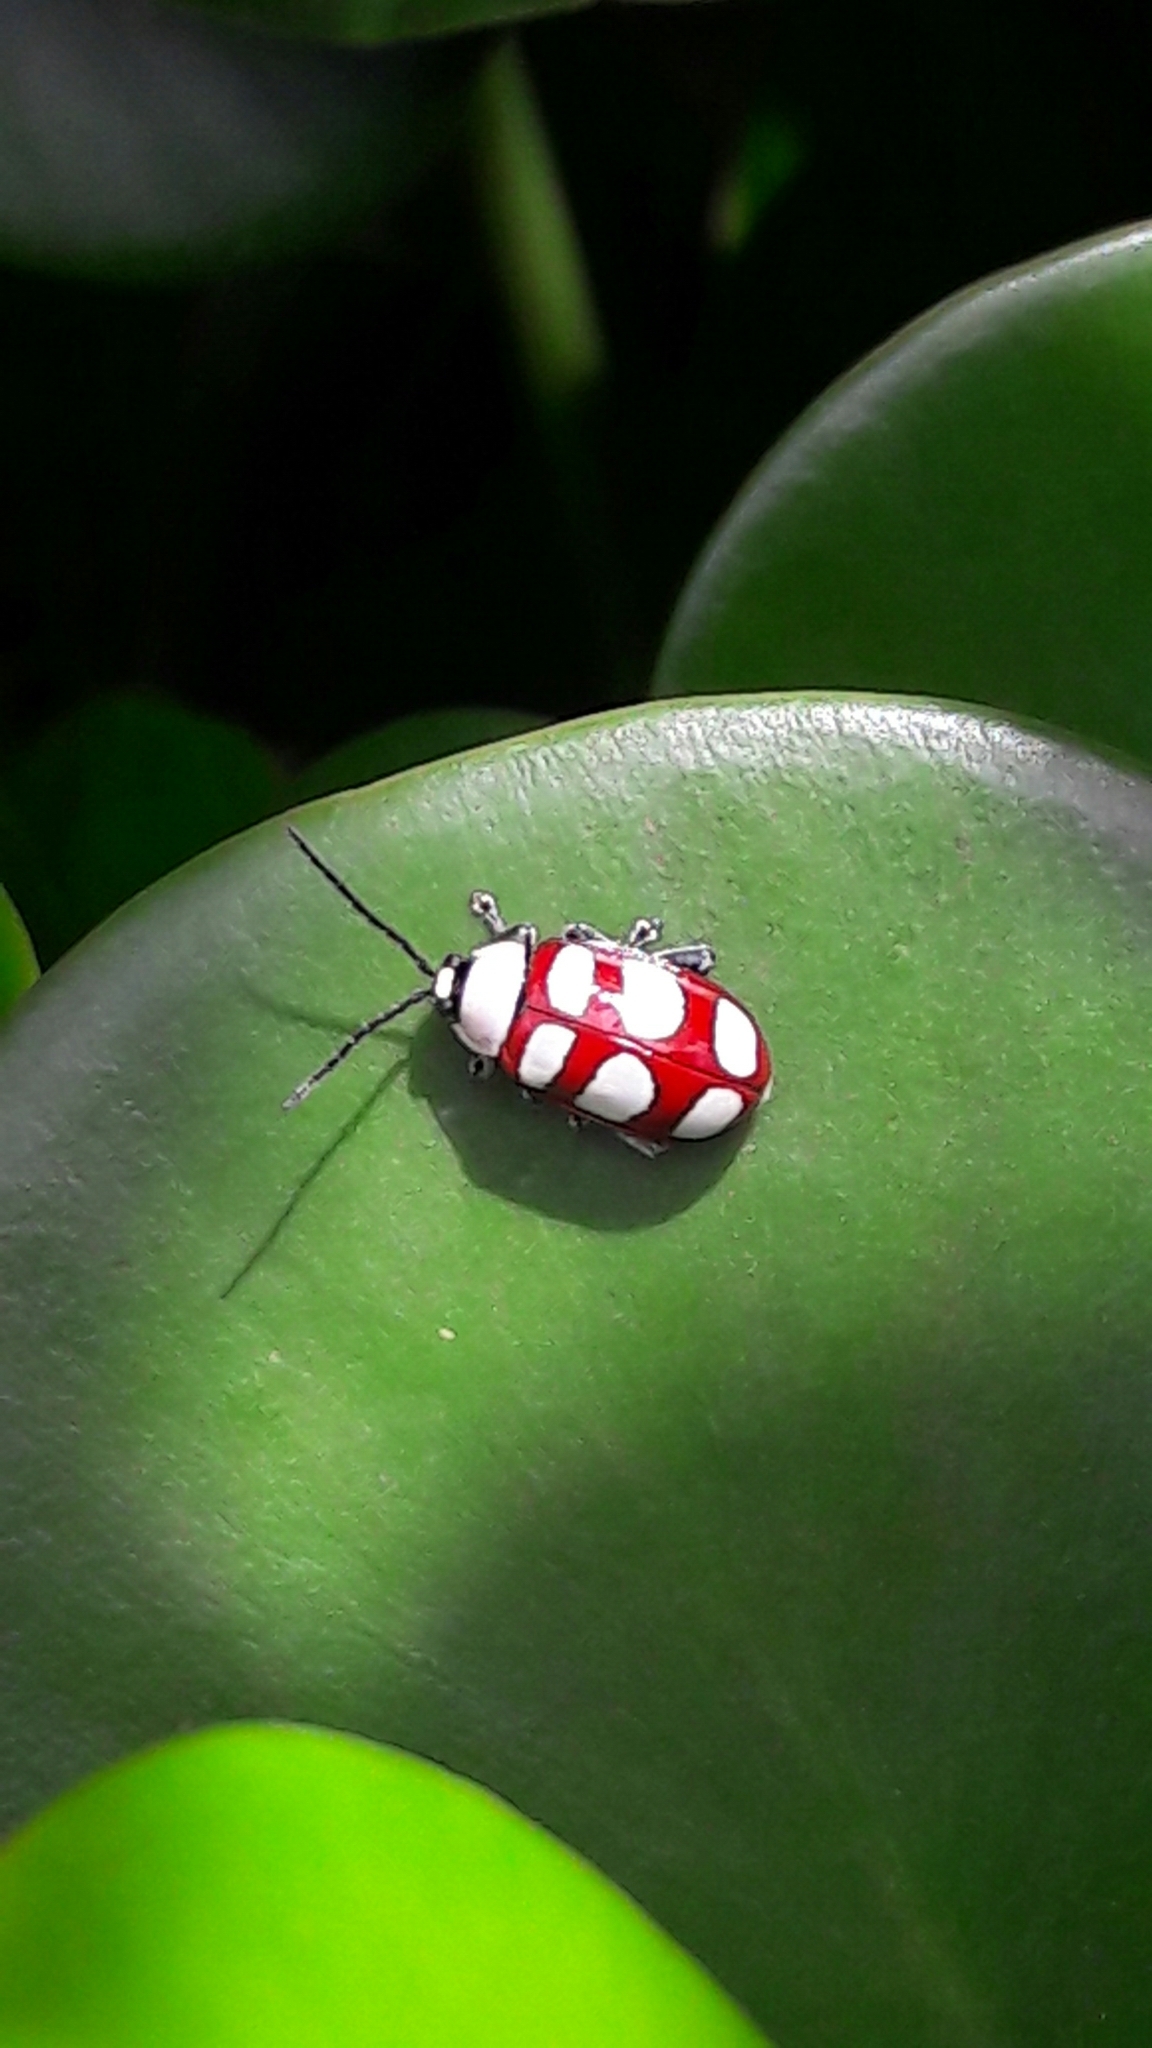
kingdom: Animalia
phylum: Arthropoda
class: Insecta
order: Coleoptera
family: Chrysomelidae
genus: Omophoita
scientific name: Omophoita personata
